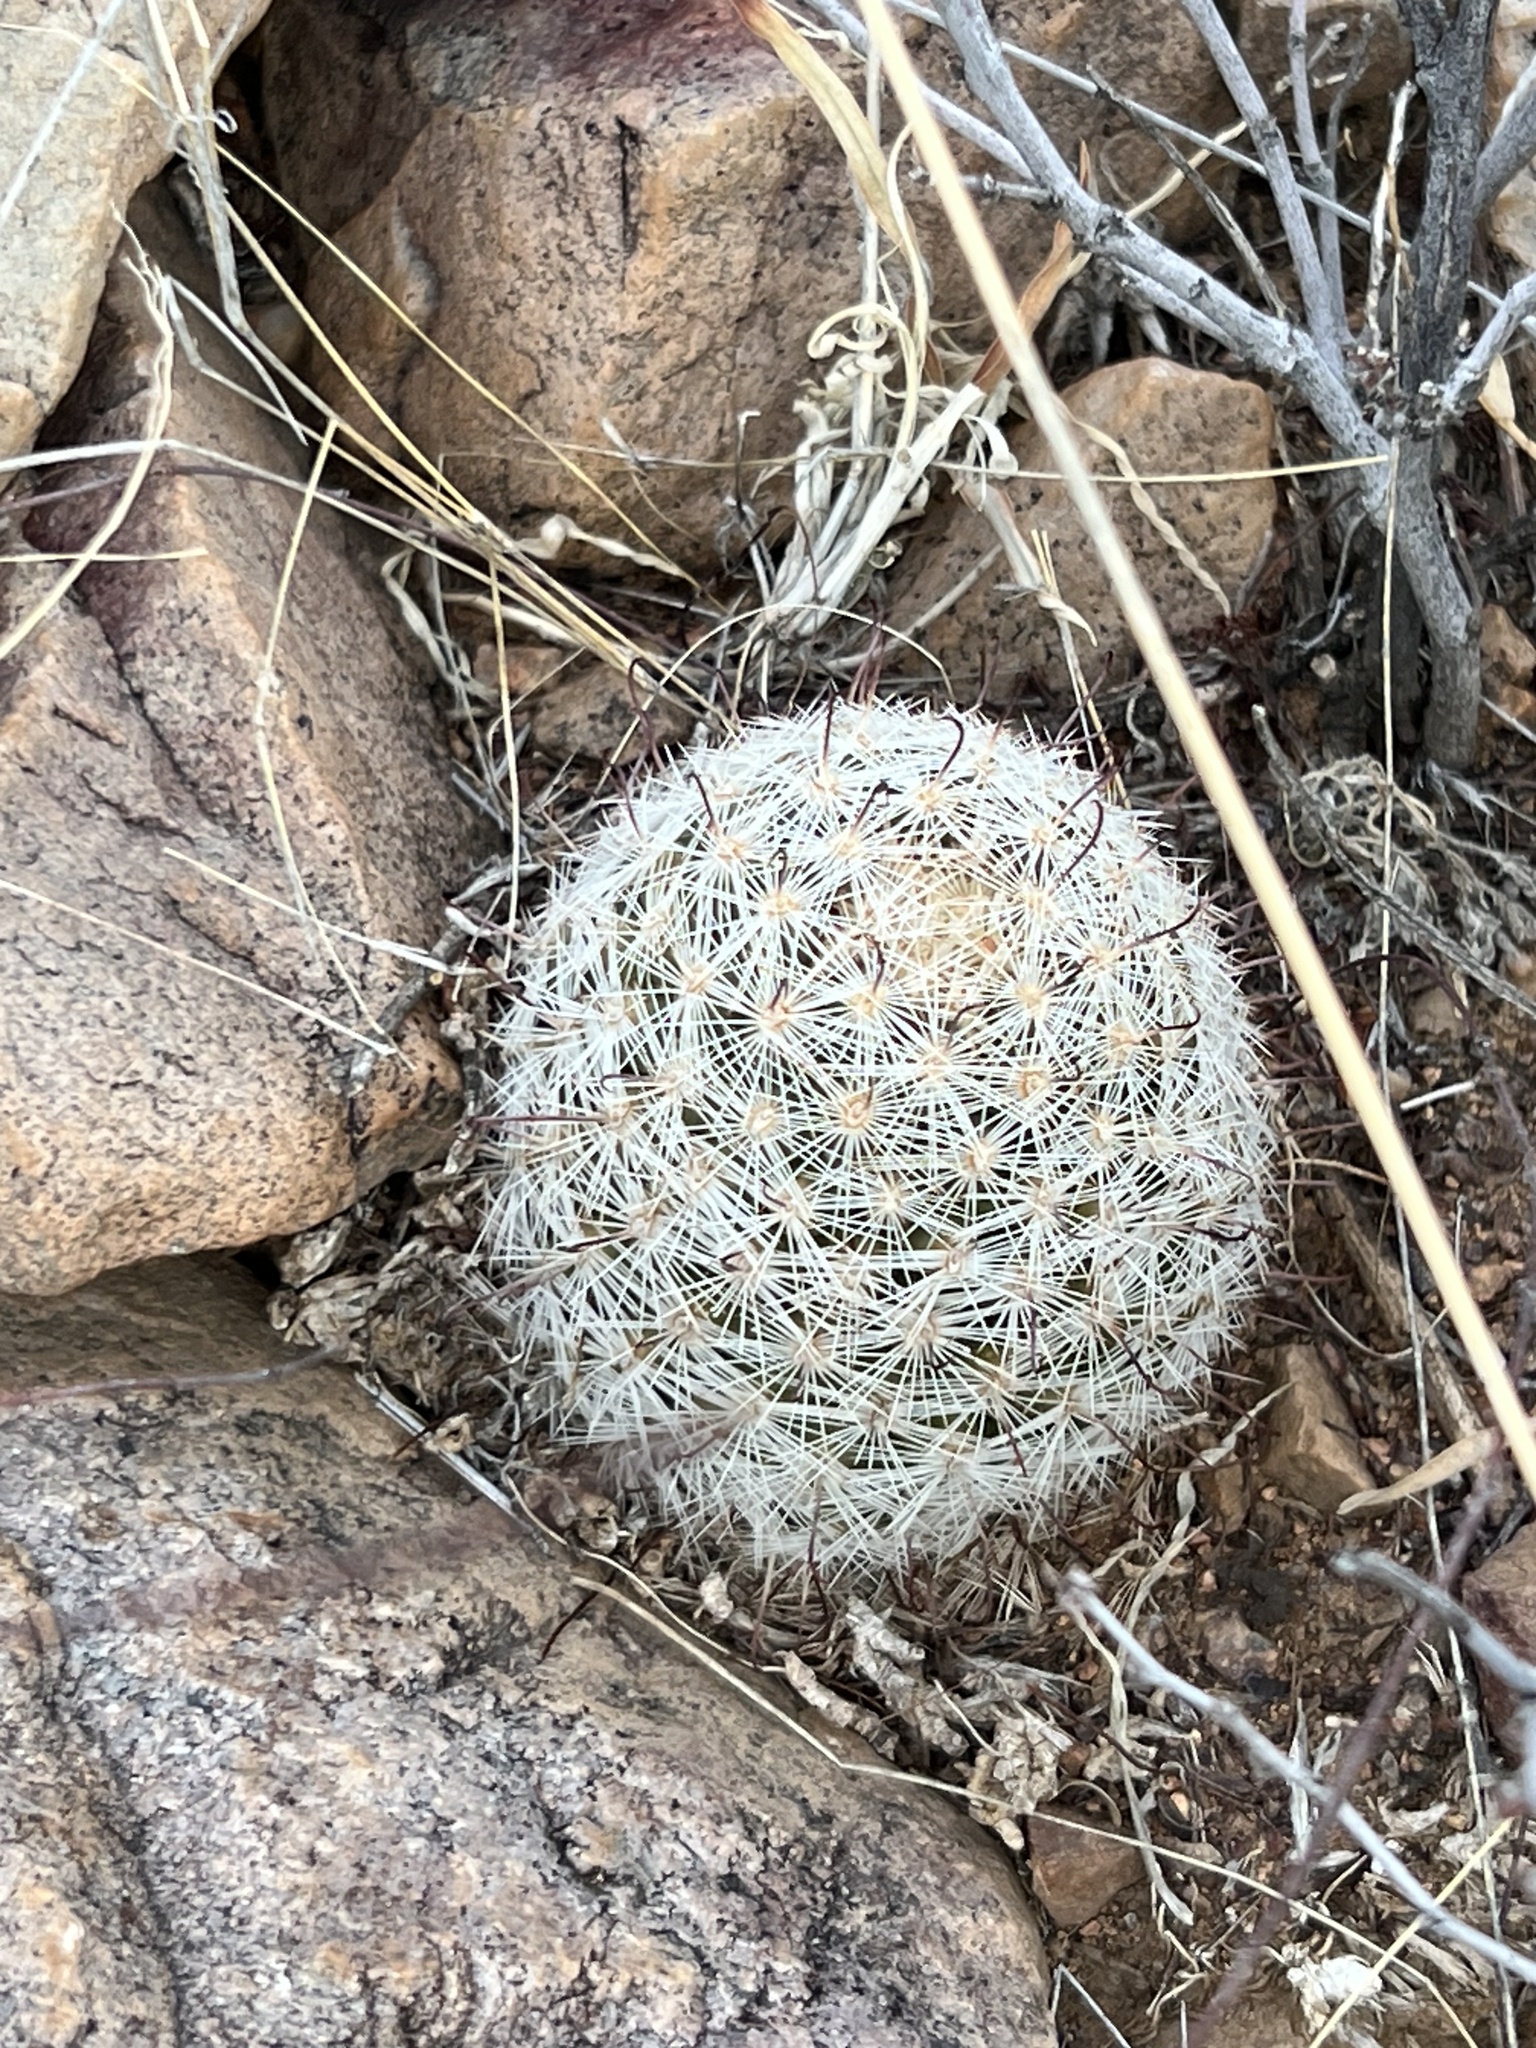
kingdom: Plantae
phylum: Tracheophyta
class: Magnoliopsida
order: Caryophyllales
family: Cactaceae
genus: Cochemiea
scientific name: Cochemiea grahamii
